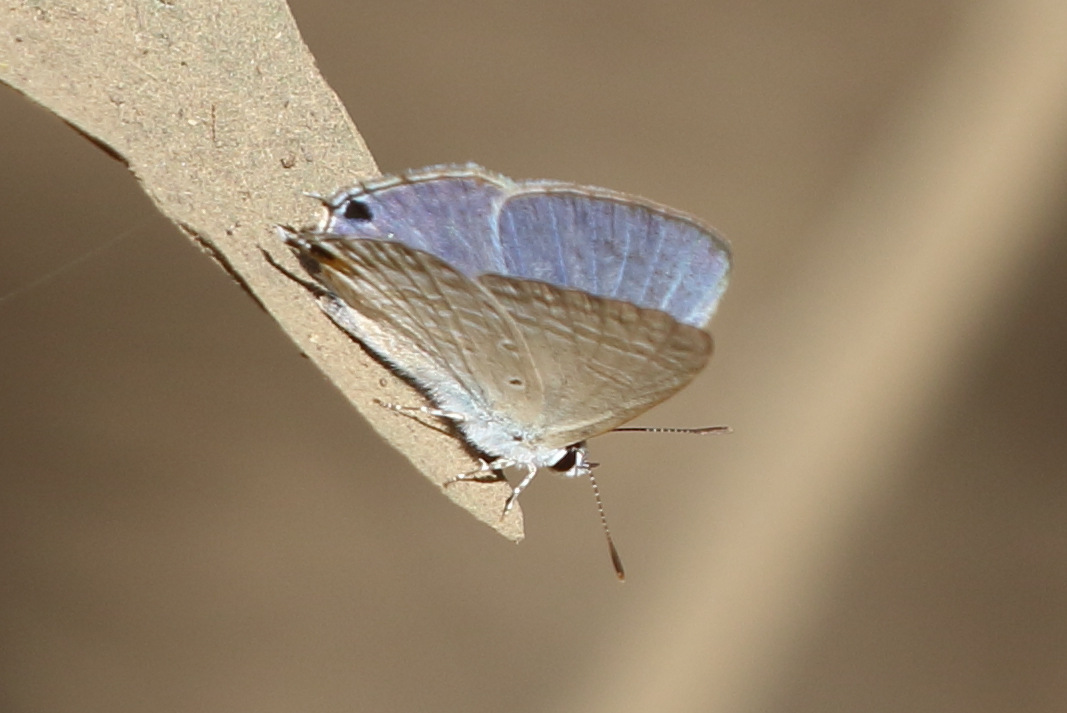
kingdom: Animalia
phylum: Arthropoda
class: Insecta
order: Lepidoptera
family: Lycaenidae
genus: Catochrysops
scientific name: Catochrysops panormus
